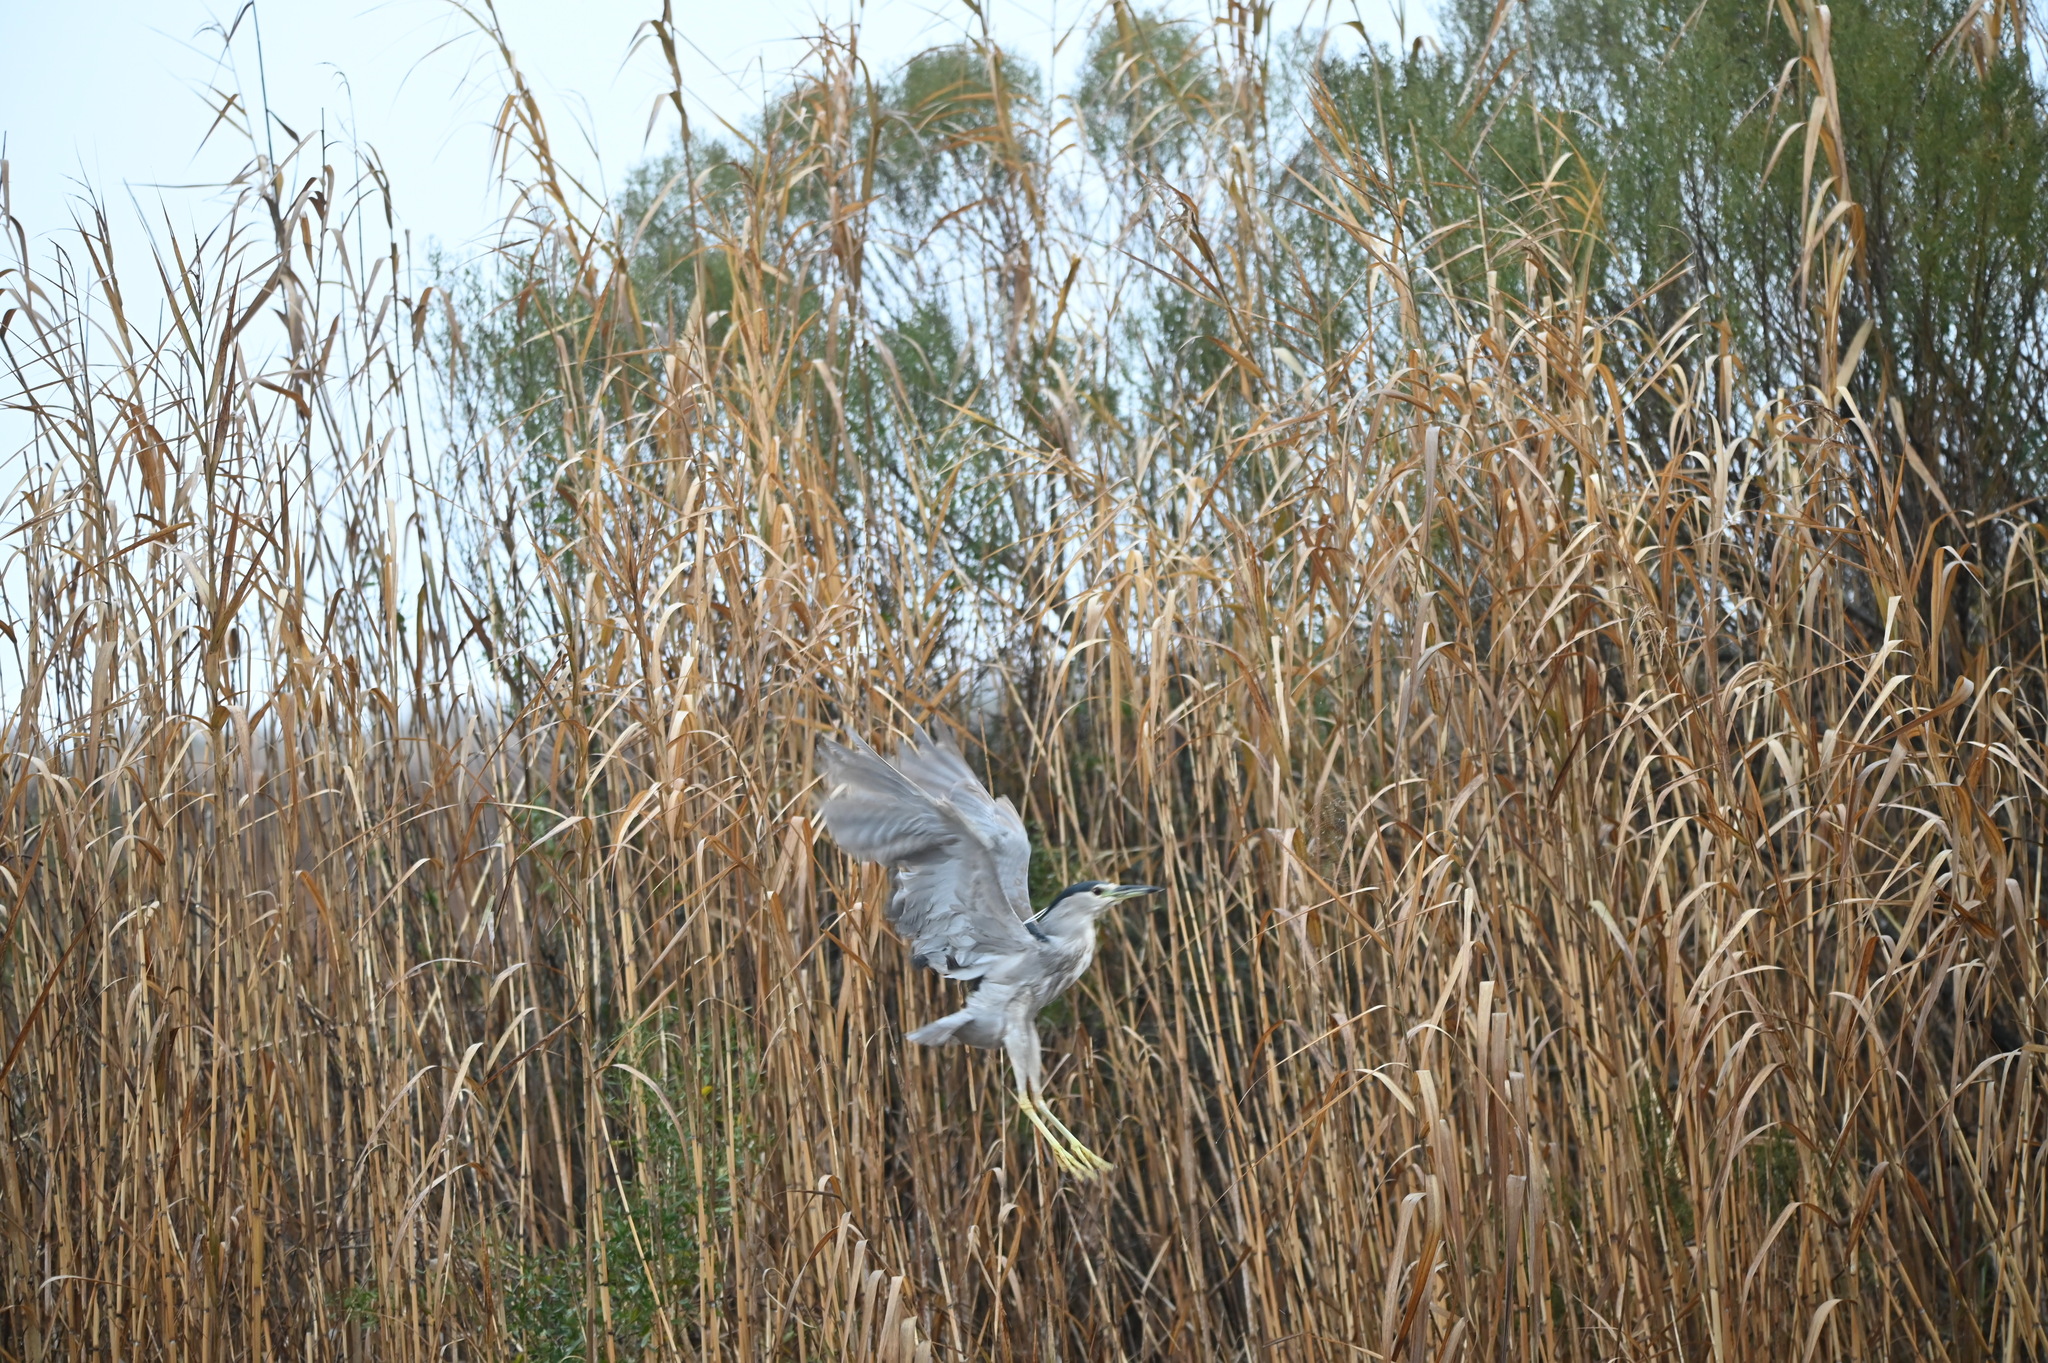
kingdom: Animalia
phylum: Chordata
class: Aves
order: Pelecaniformes
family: Ardeidae
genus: Nycticorax
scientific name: Nycticorax nycticorax
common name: Black-crowned night heron
